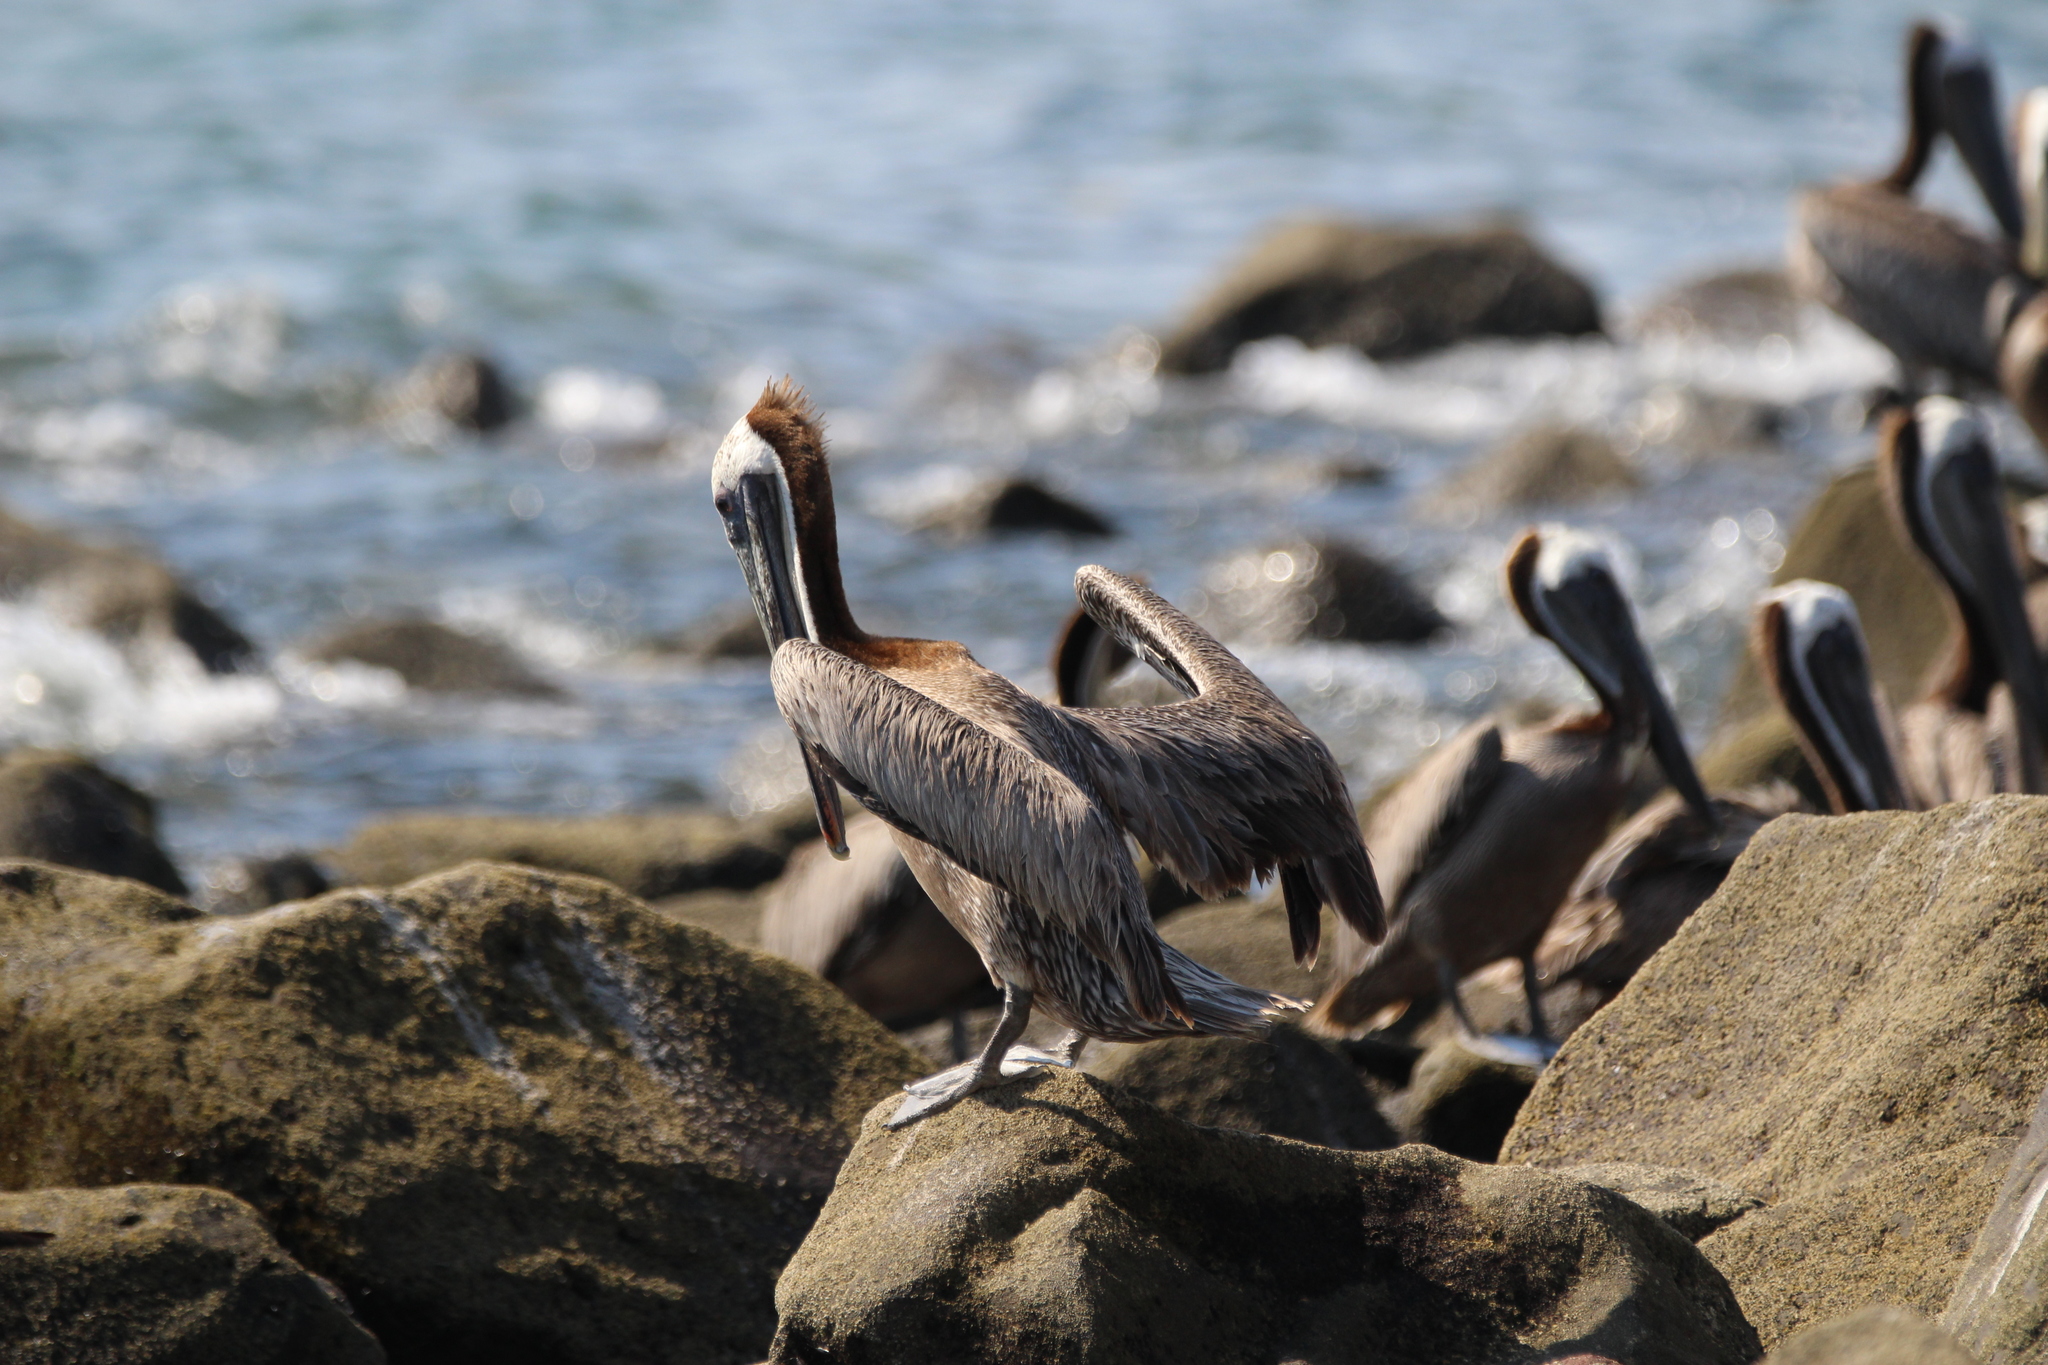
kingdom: Animalia
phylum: Chordata
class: Aves
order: Pelecaniformes
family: Pelecanidae
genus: Pelecanus
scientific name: Pelecanus occidentalis
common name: Brown pelican
